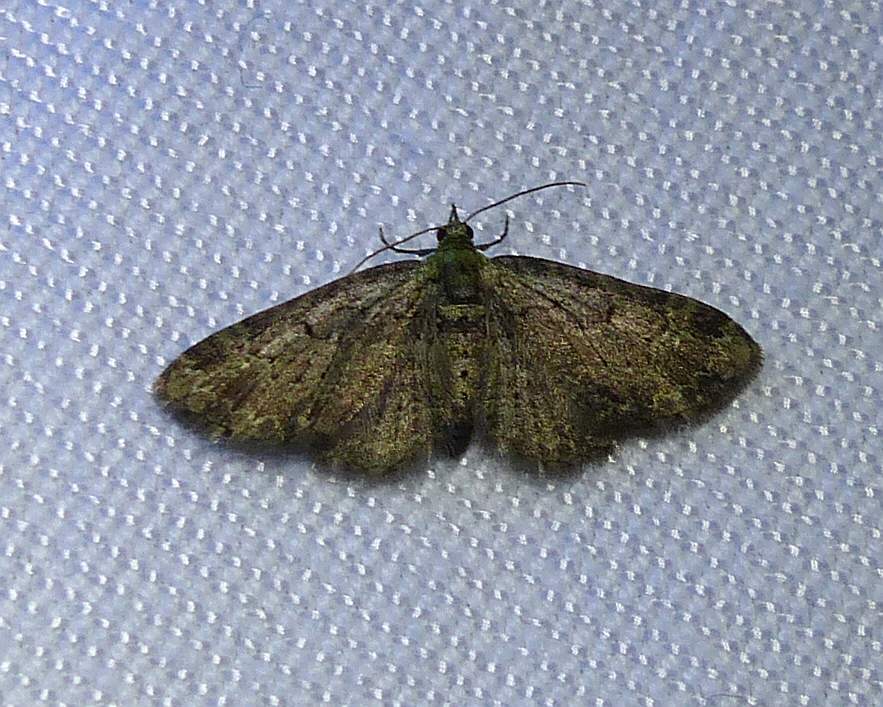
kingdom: Animalia
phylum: Arthropoda
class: Insecta
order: Lepidoptera
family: Geometridae
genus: Pasiphila
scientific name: Pasiphila rectangulata
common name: Green pug
